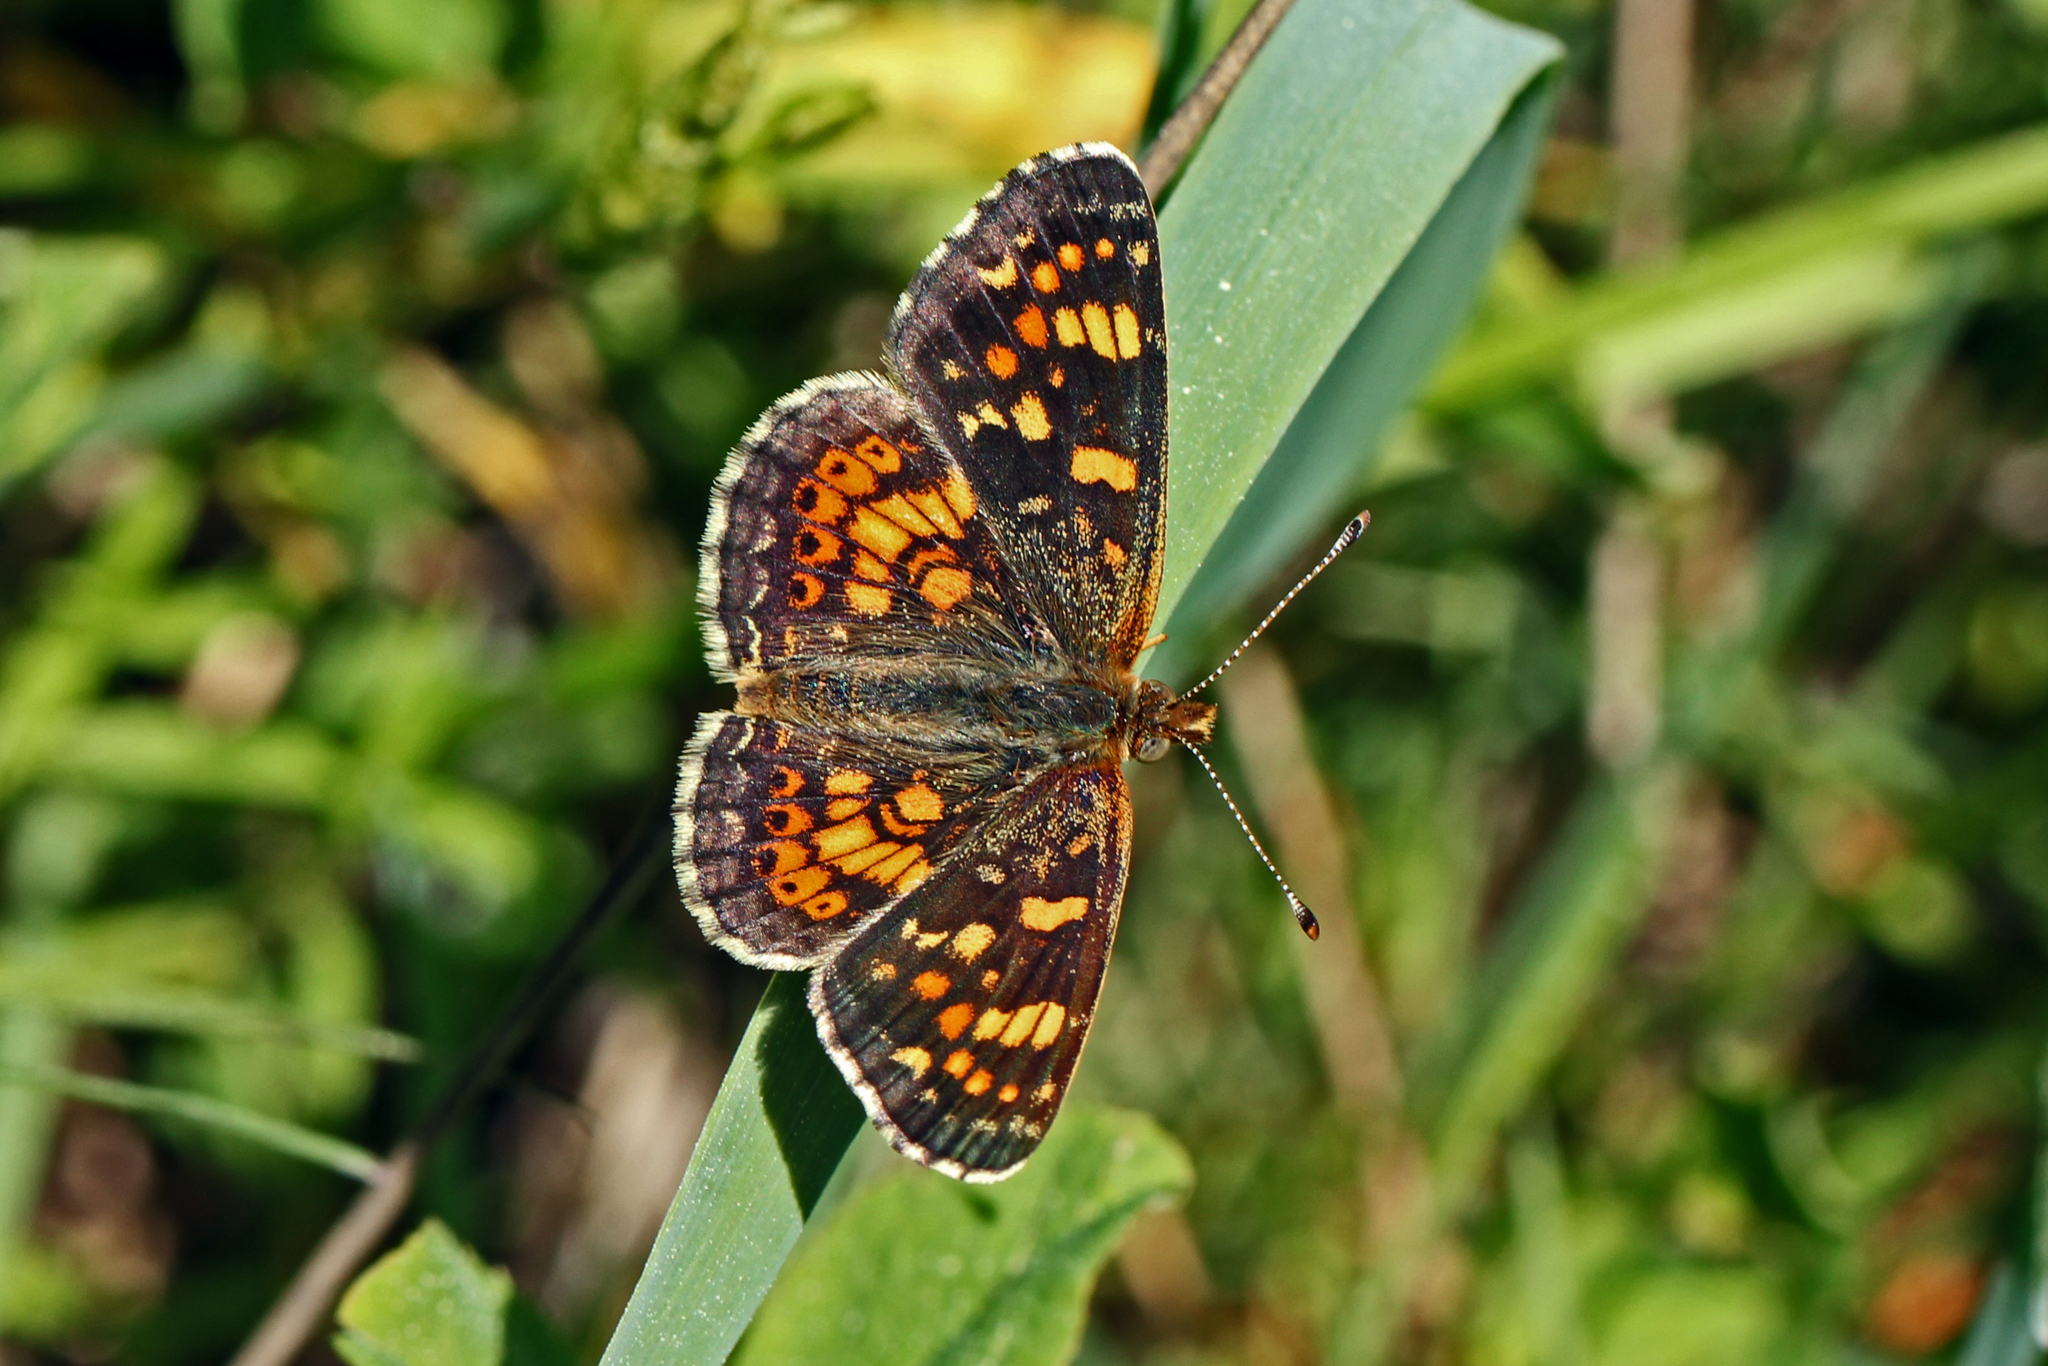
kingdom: Animalia
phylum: Arthropoda
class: Insecta
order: Lepidoptera
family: Nymphalidae
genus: Phyciodes
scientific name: Phyciodes tharos
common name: Pearl crescent
